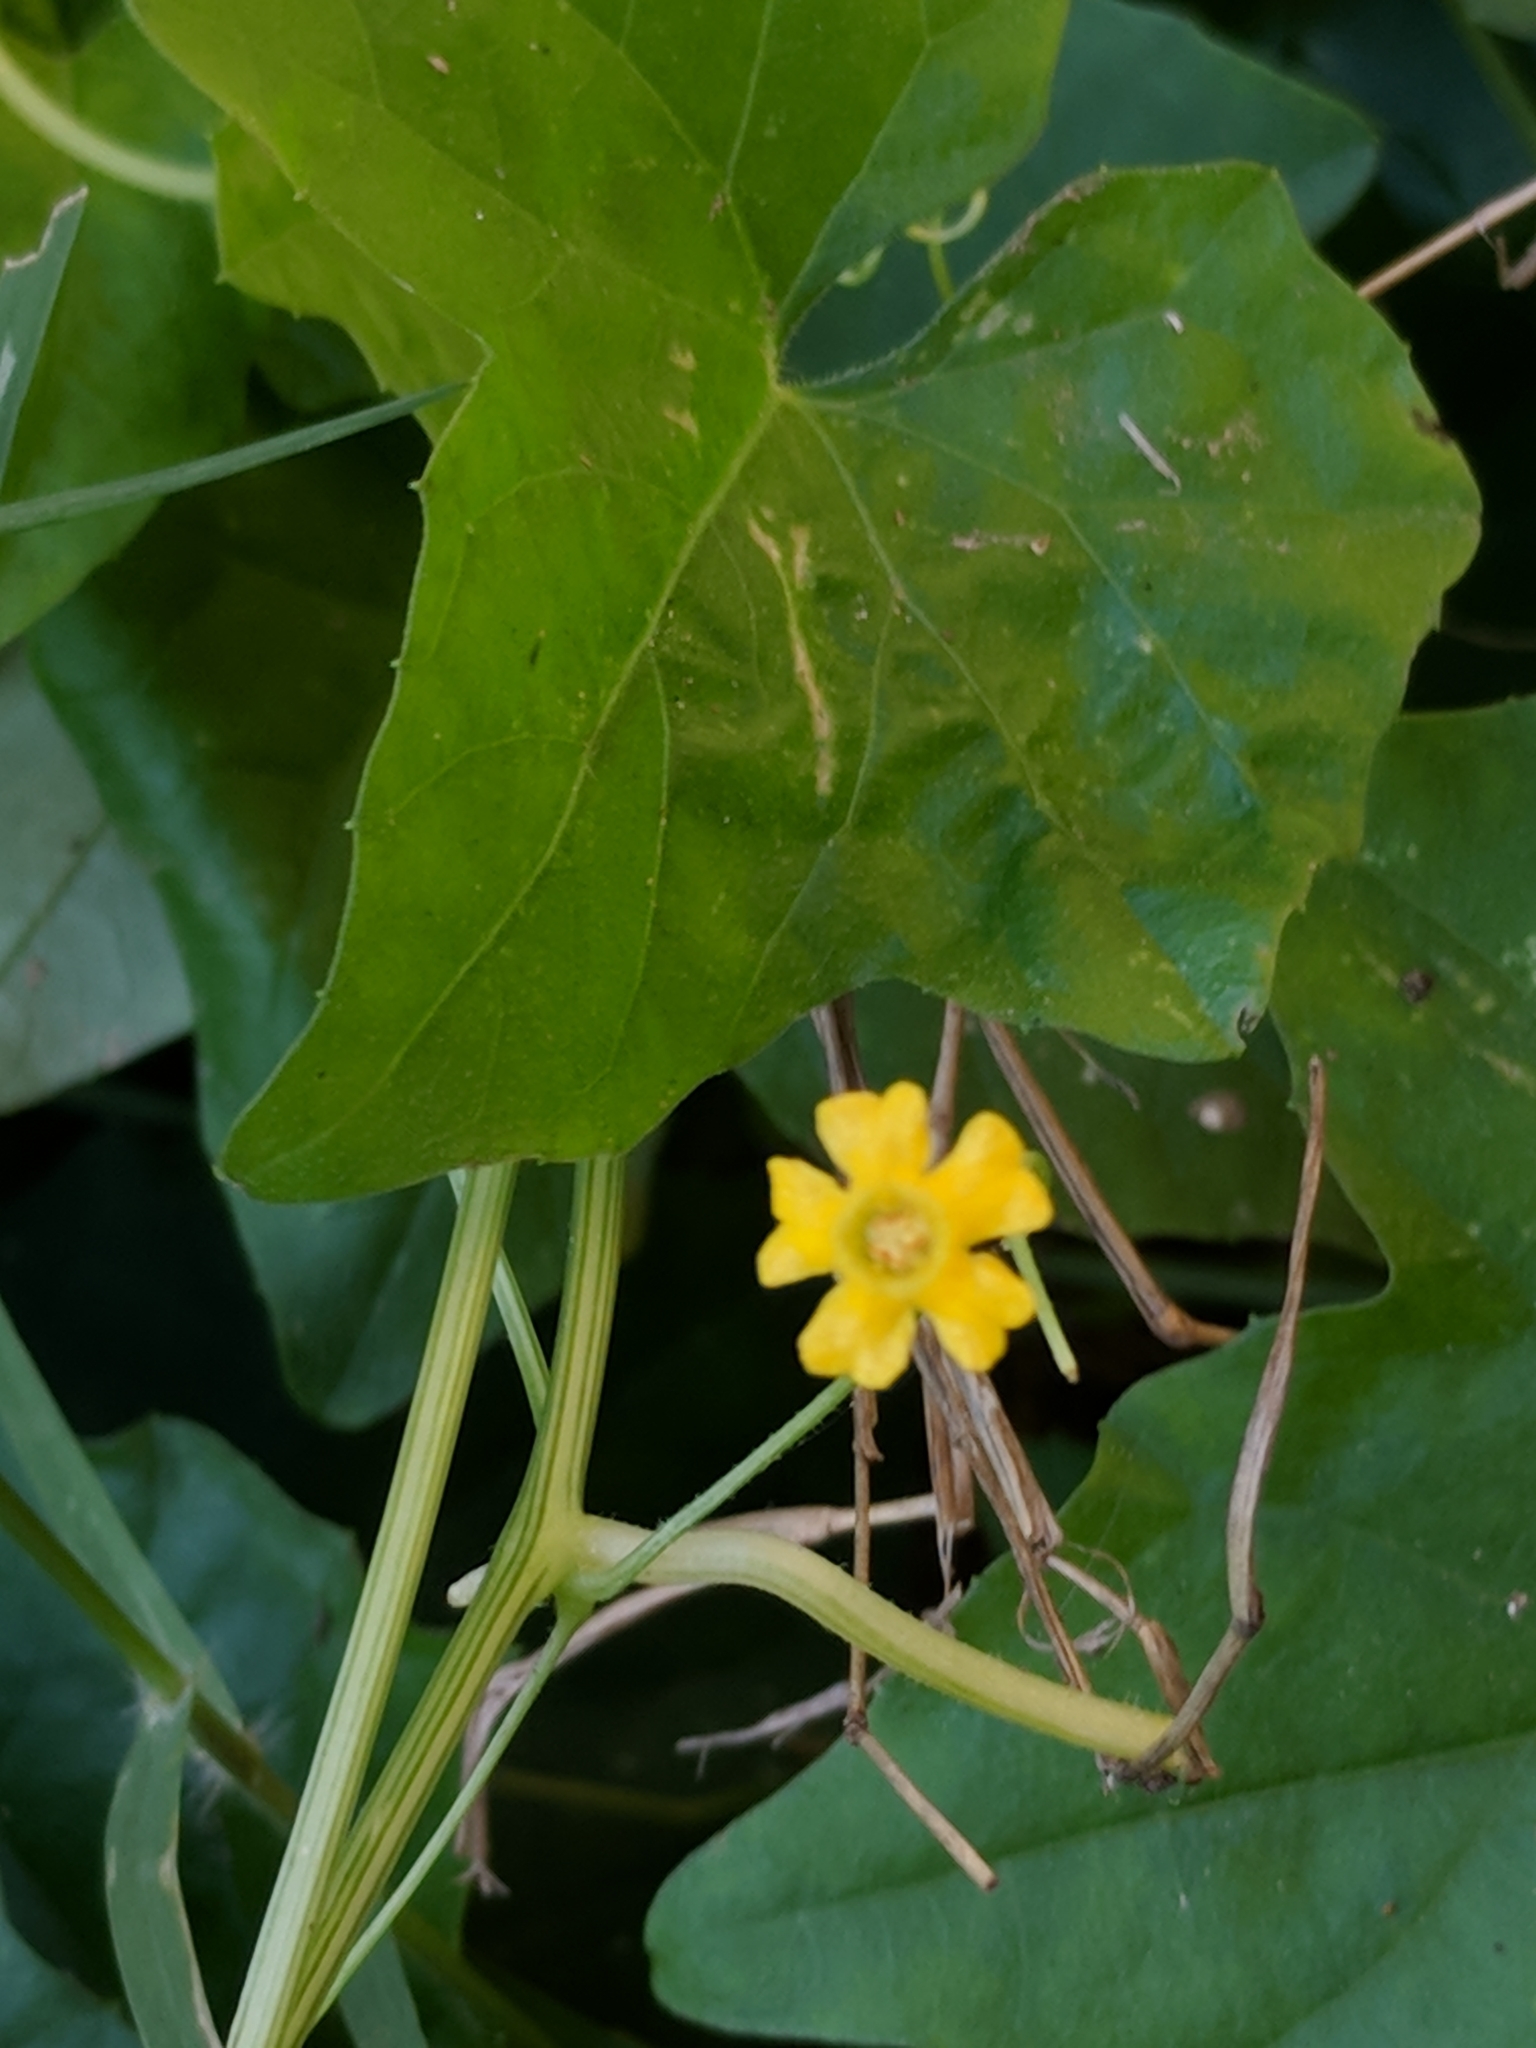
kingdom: Plantae
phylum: Tracheophyta
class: Magnoliopsida
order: Cucurbitales
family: Cucurbitaceae
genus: Melothria
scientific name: Melothria pendula
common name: Creeping-cucumber
